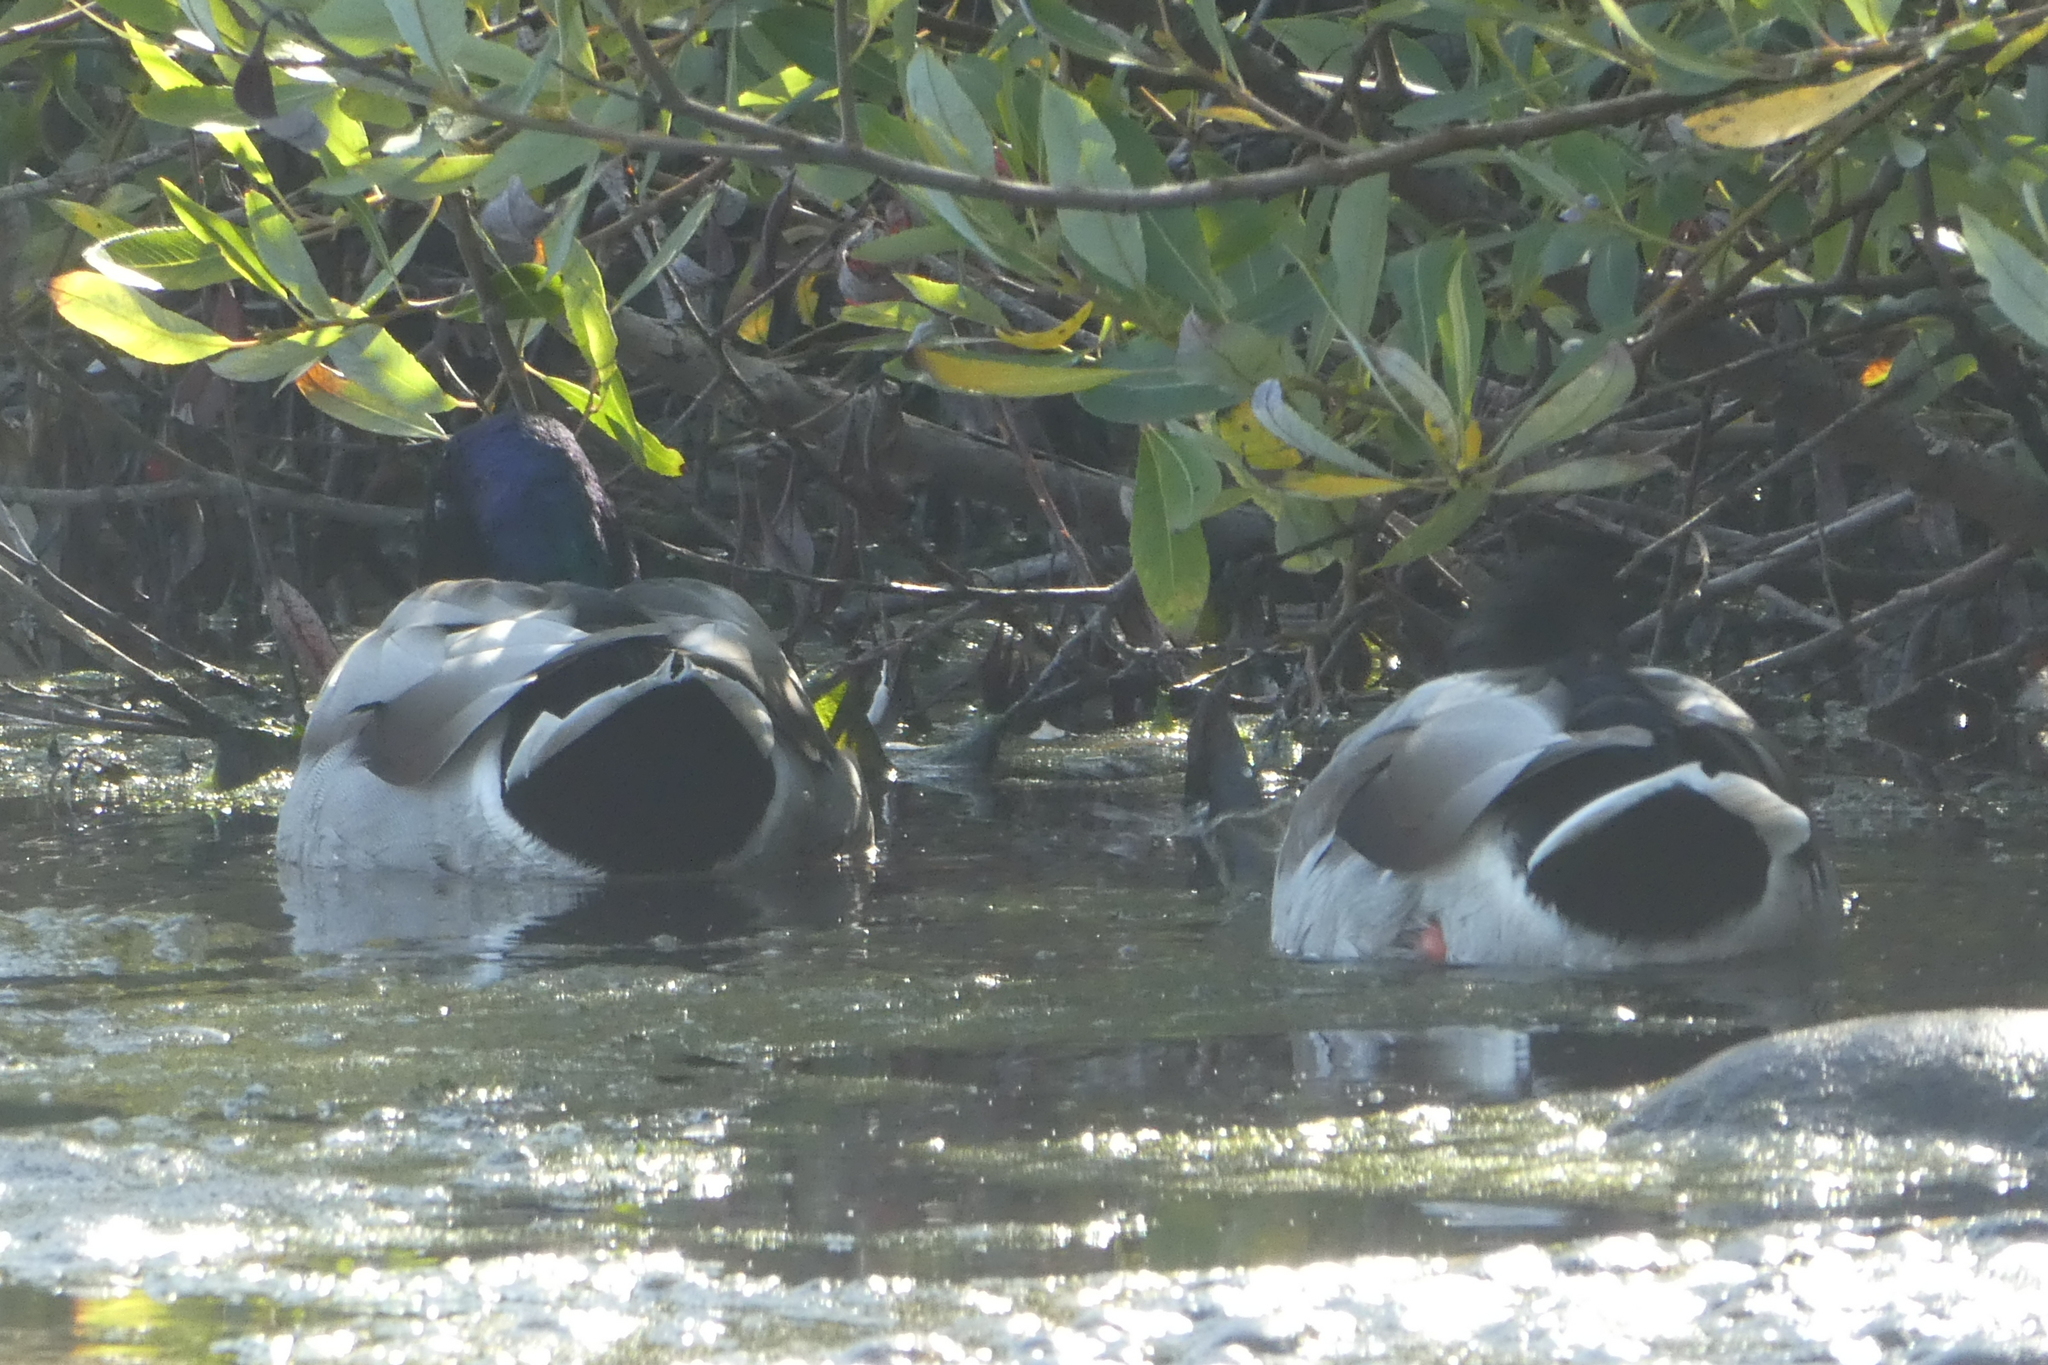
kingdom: Animalia
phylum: Chordata
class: Aves
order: Anseriformes
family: Anatidae
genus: Anas
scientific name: Anas platyrhynchos
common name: Mallard
